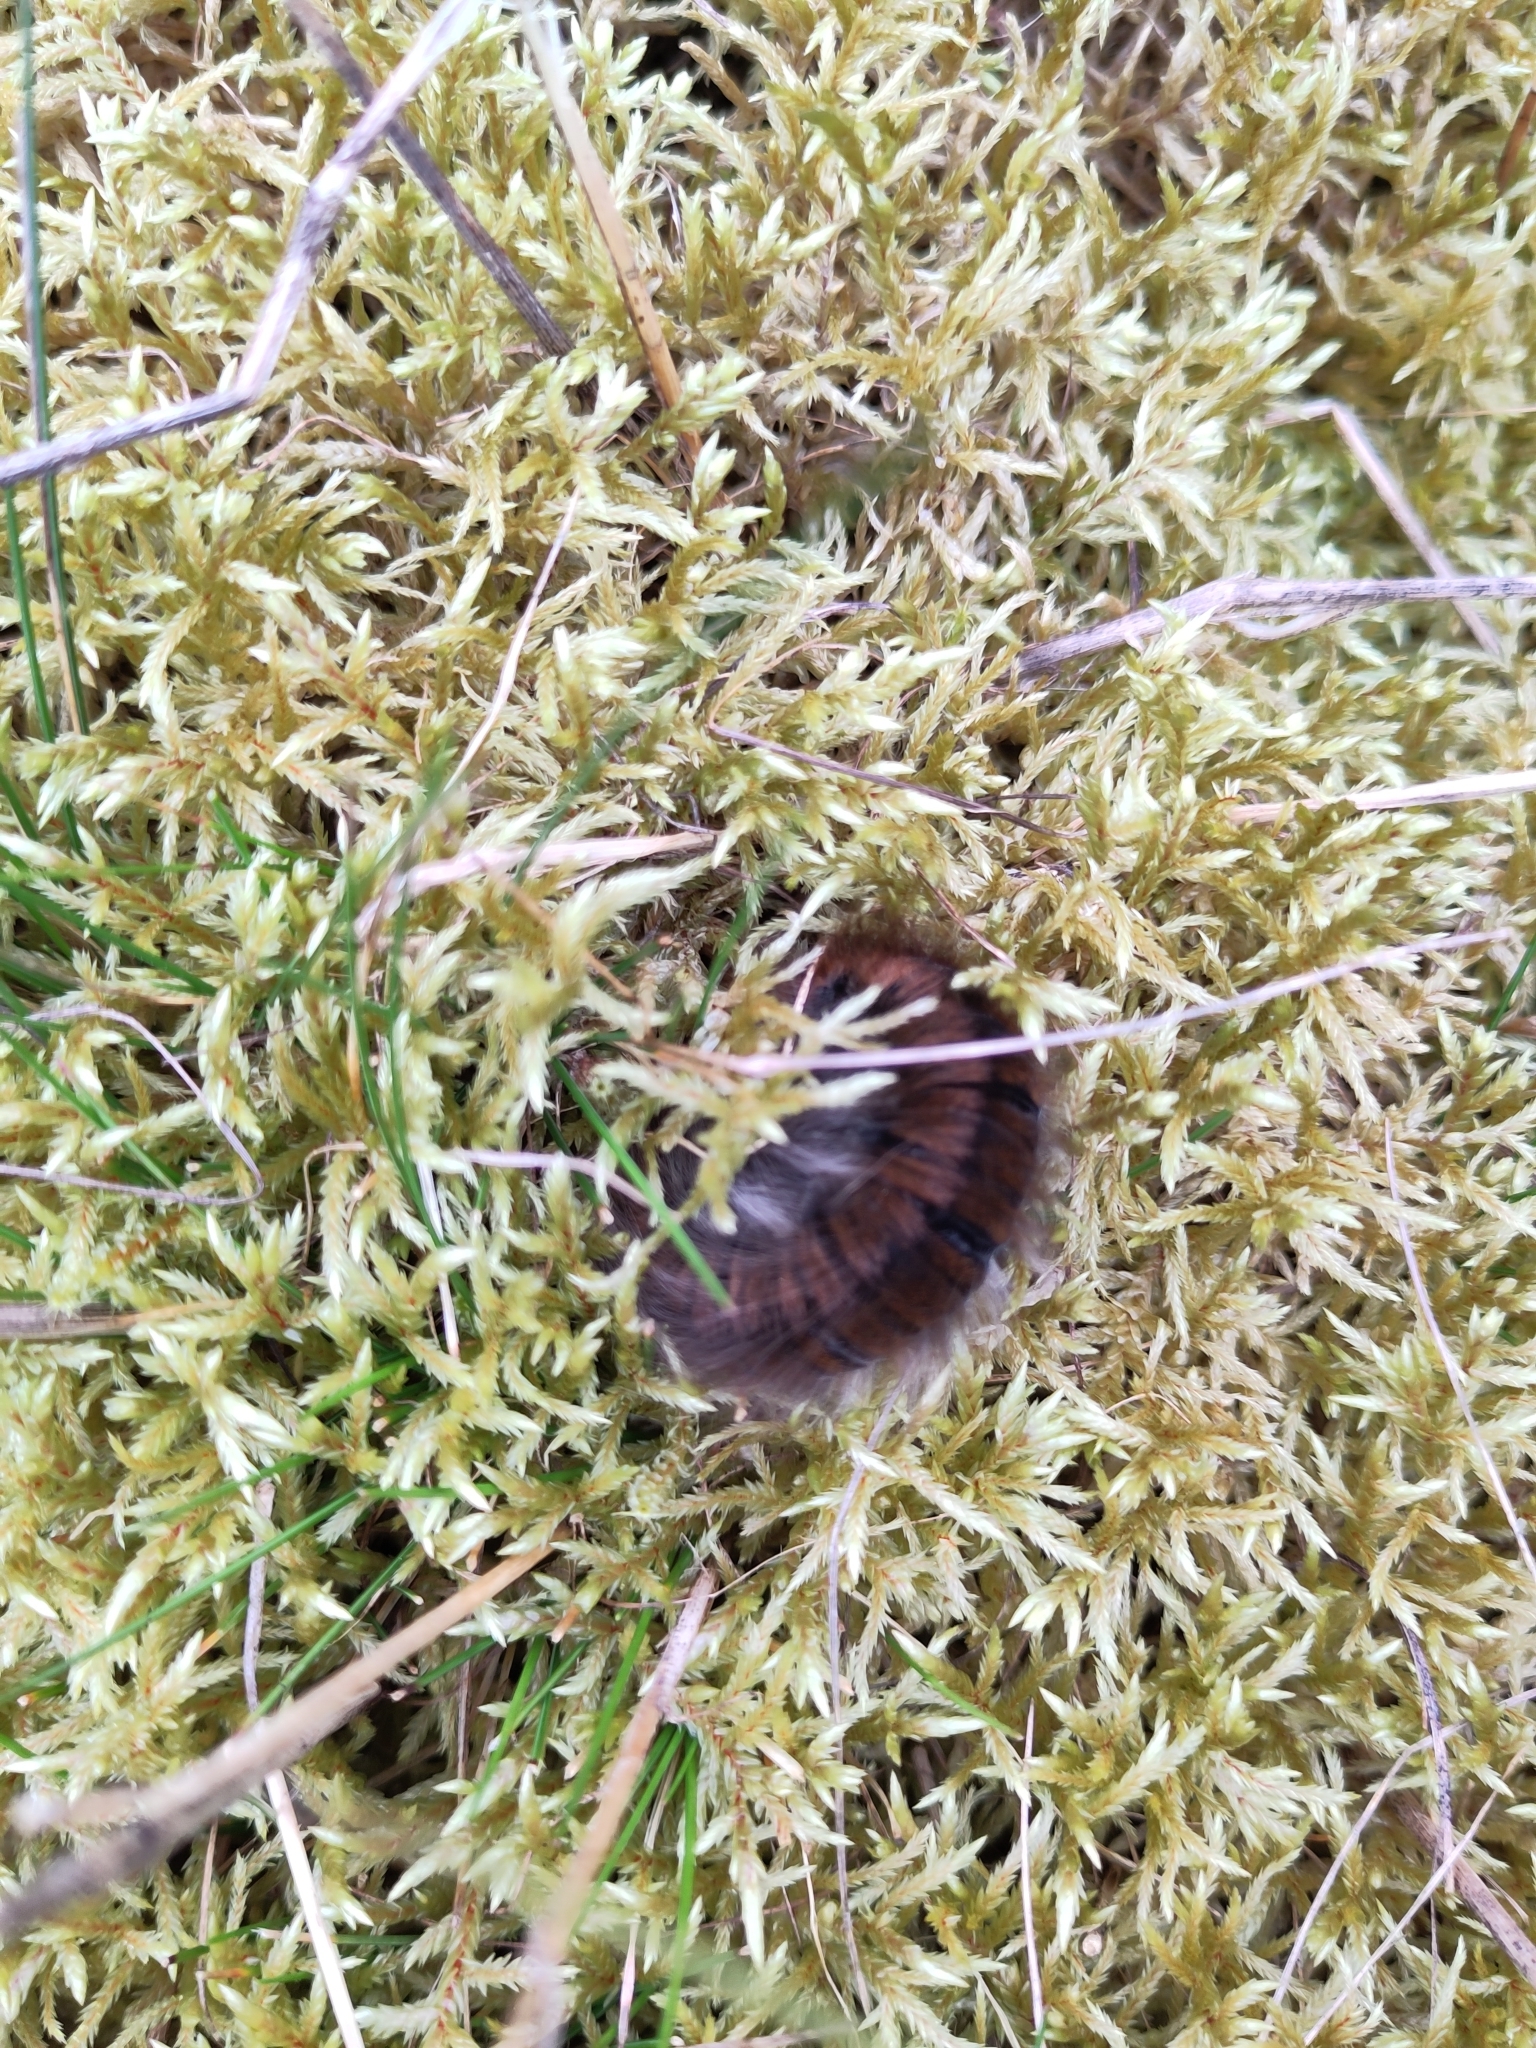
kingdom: Animalia
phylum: Arthropoda
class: Insecta
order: Lepidoptera
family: Lasiocampidae
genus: Macrothylacia
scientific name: Macrothylacia rubi
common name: Fox moth
